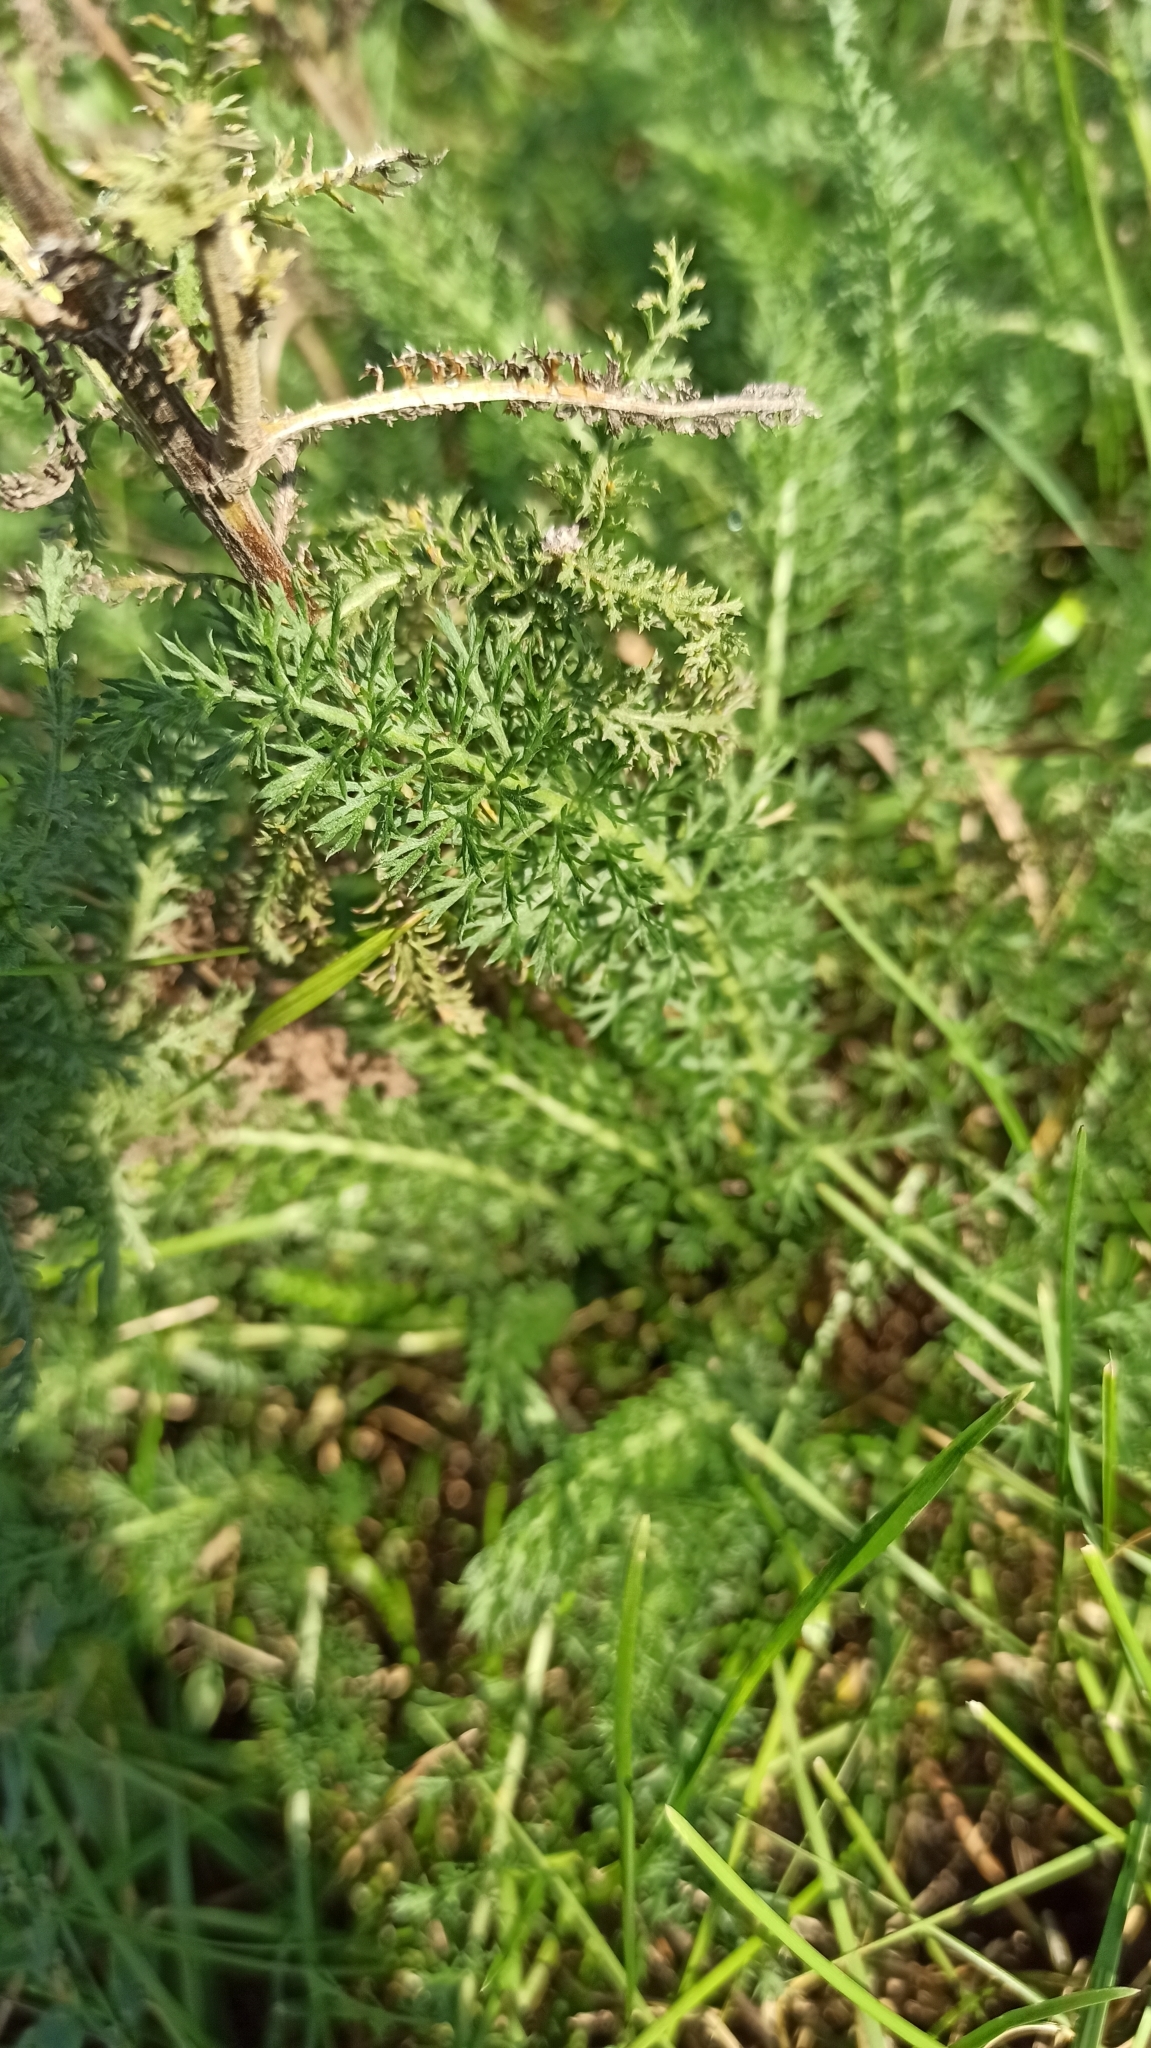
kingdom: Plantae
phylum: Tracheophyta
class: Magnoliopsida
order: Asterales
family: Asteraceae
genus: Achillea
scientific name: Achillea millefolium
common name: Yarrow
